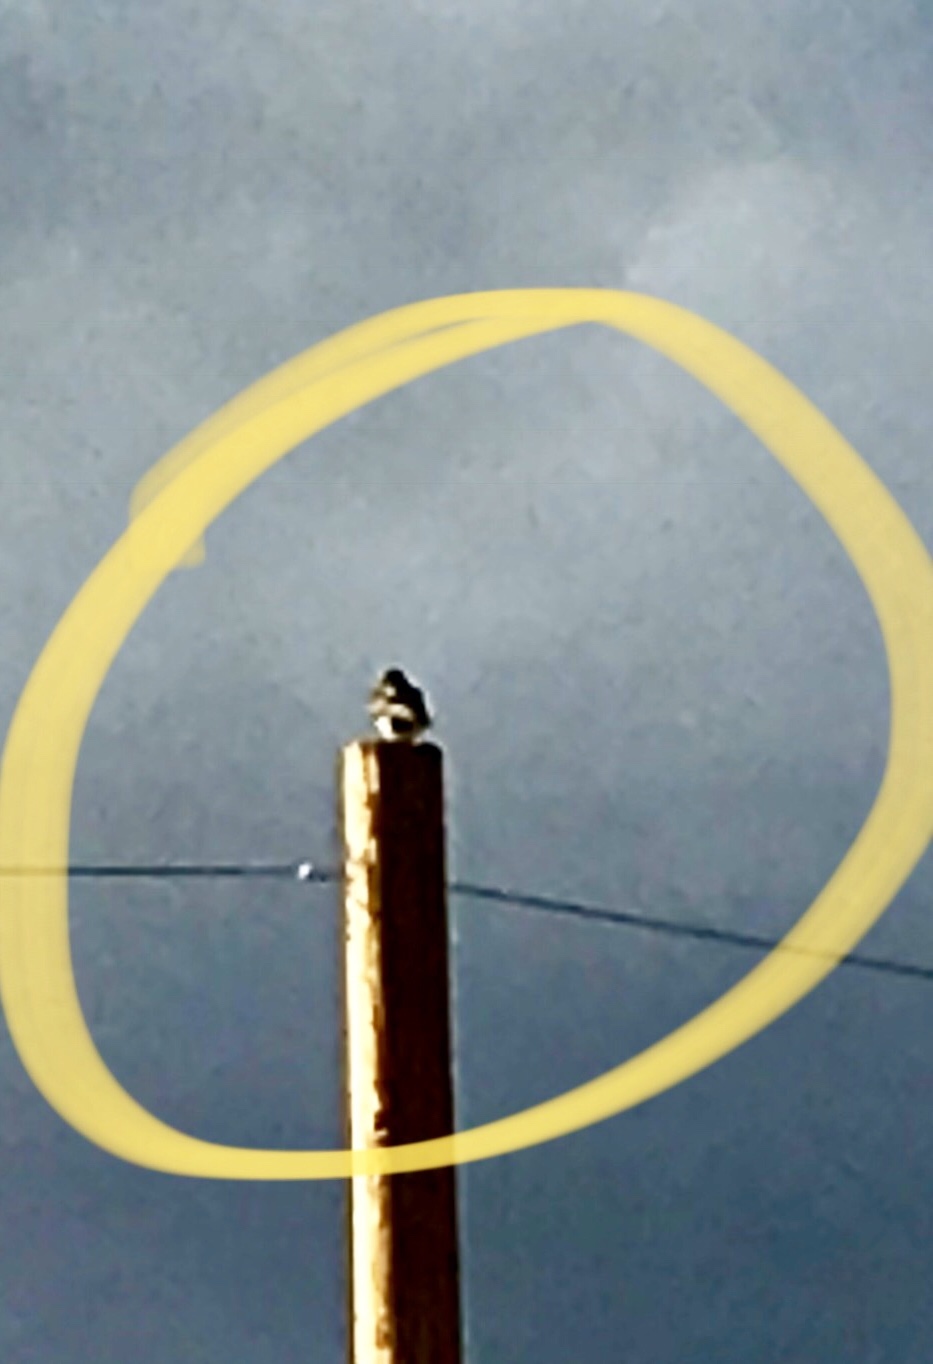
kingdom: Animalia
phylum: Chordata
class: Aves
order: Accipitriformes
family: Accipitridae
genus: Buteo
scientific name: Buteo jamaicensis
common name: Red-tailed hawk
